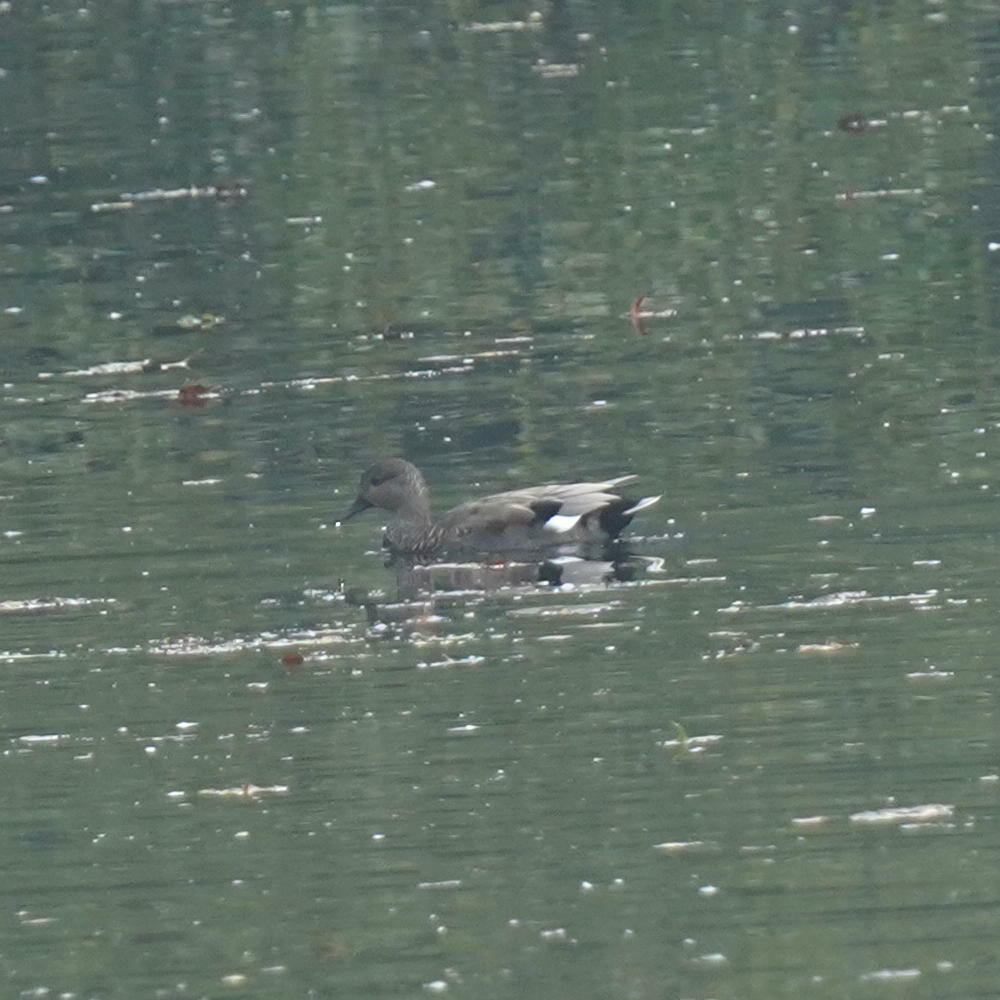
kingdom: Animalia
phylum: Chordata
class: Aves
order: Anseriformes
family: Anatidae
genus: Mareca
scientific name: Mareca strepera
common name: Gadwall
